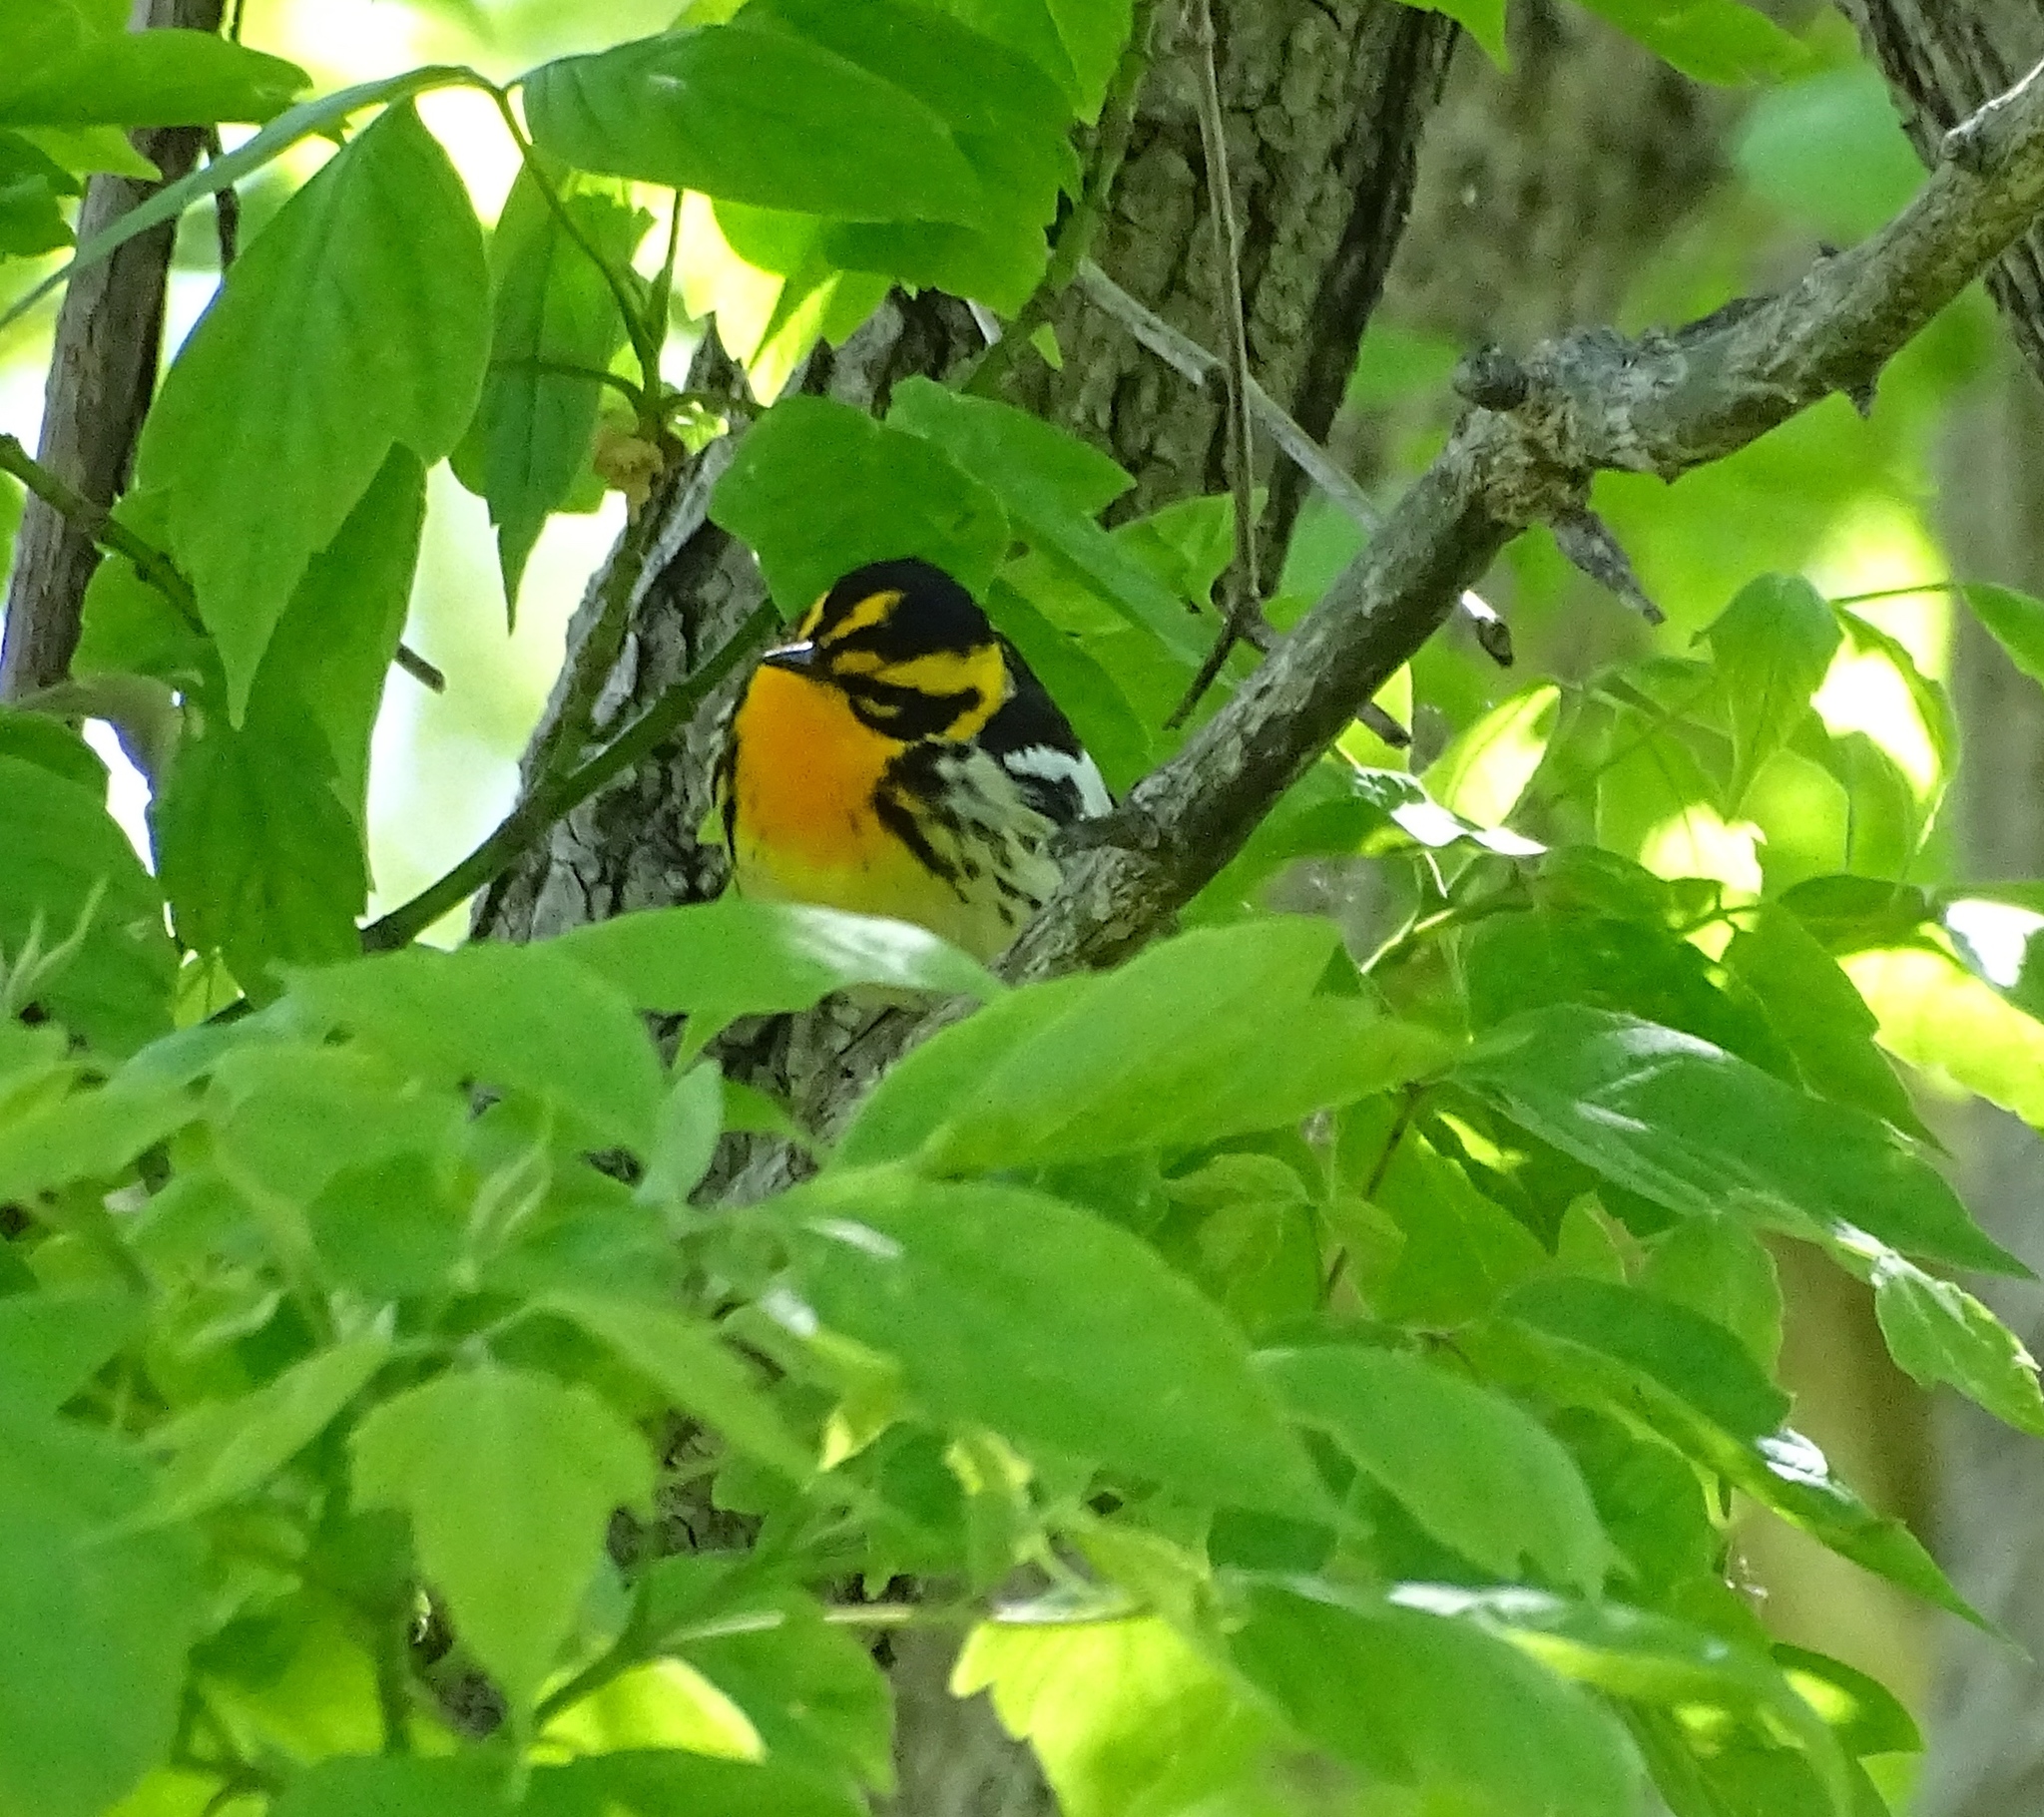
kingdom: Animalia
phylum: Chordata
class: Aves
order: Passeriformes
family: Parulidae
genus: Setophaga
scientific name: Setophaga fusca
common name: Blackburnian warbler
